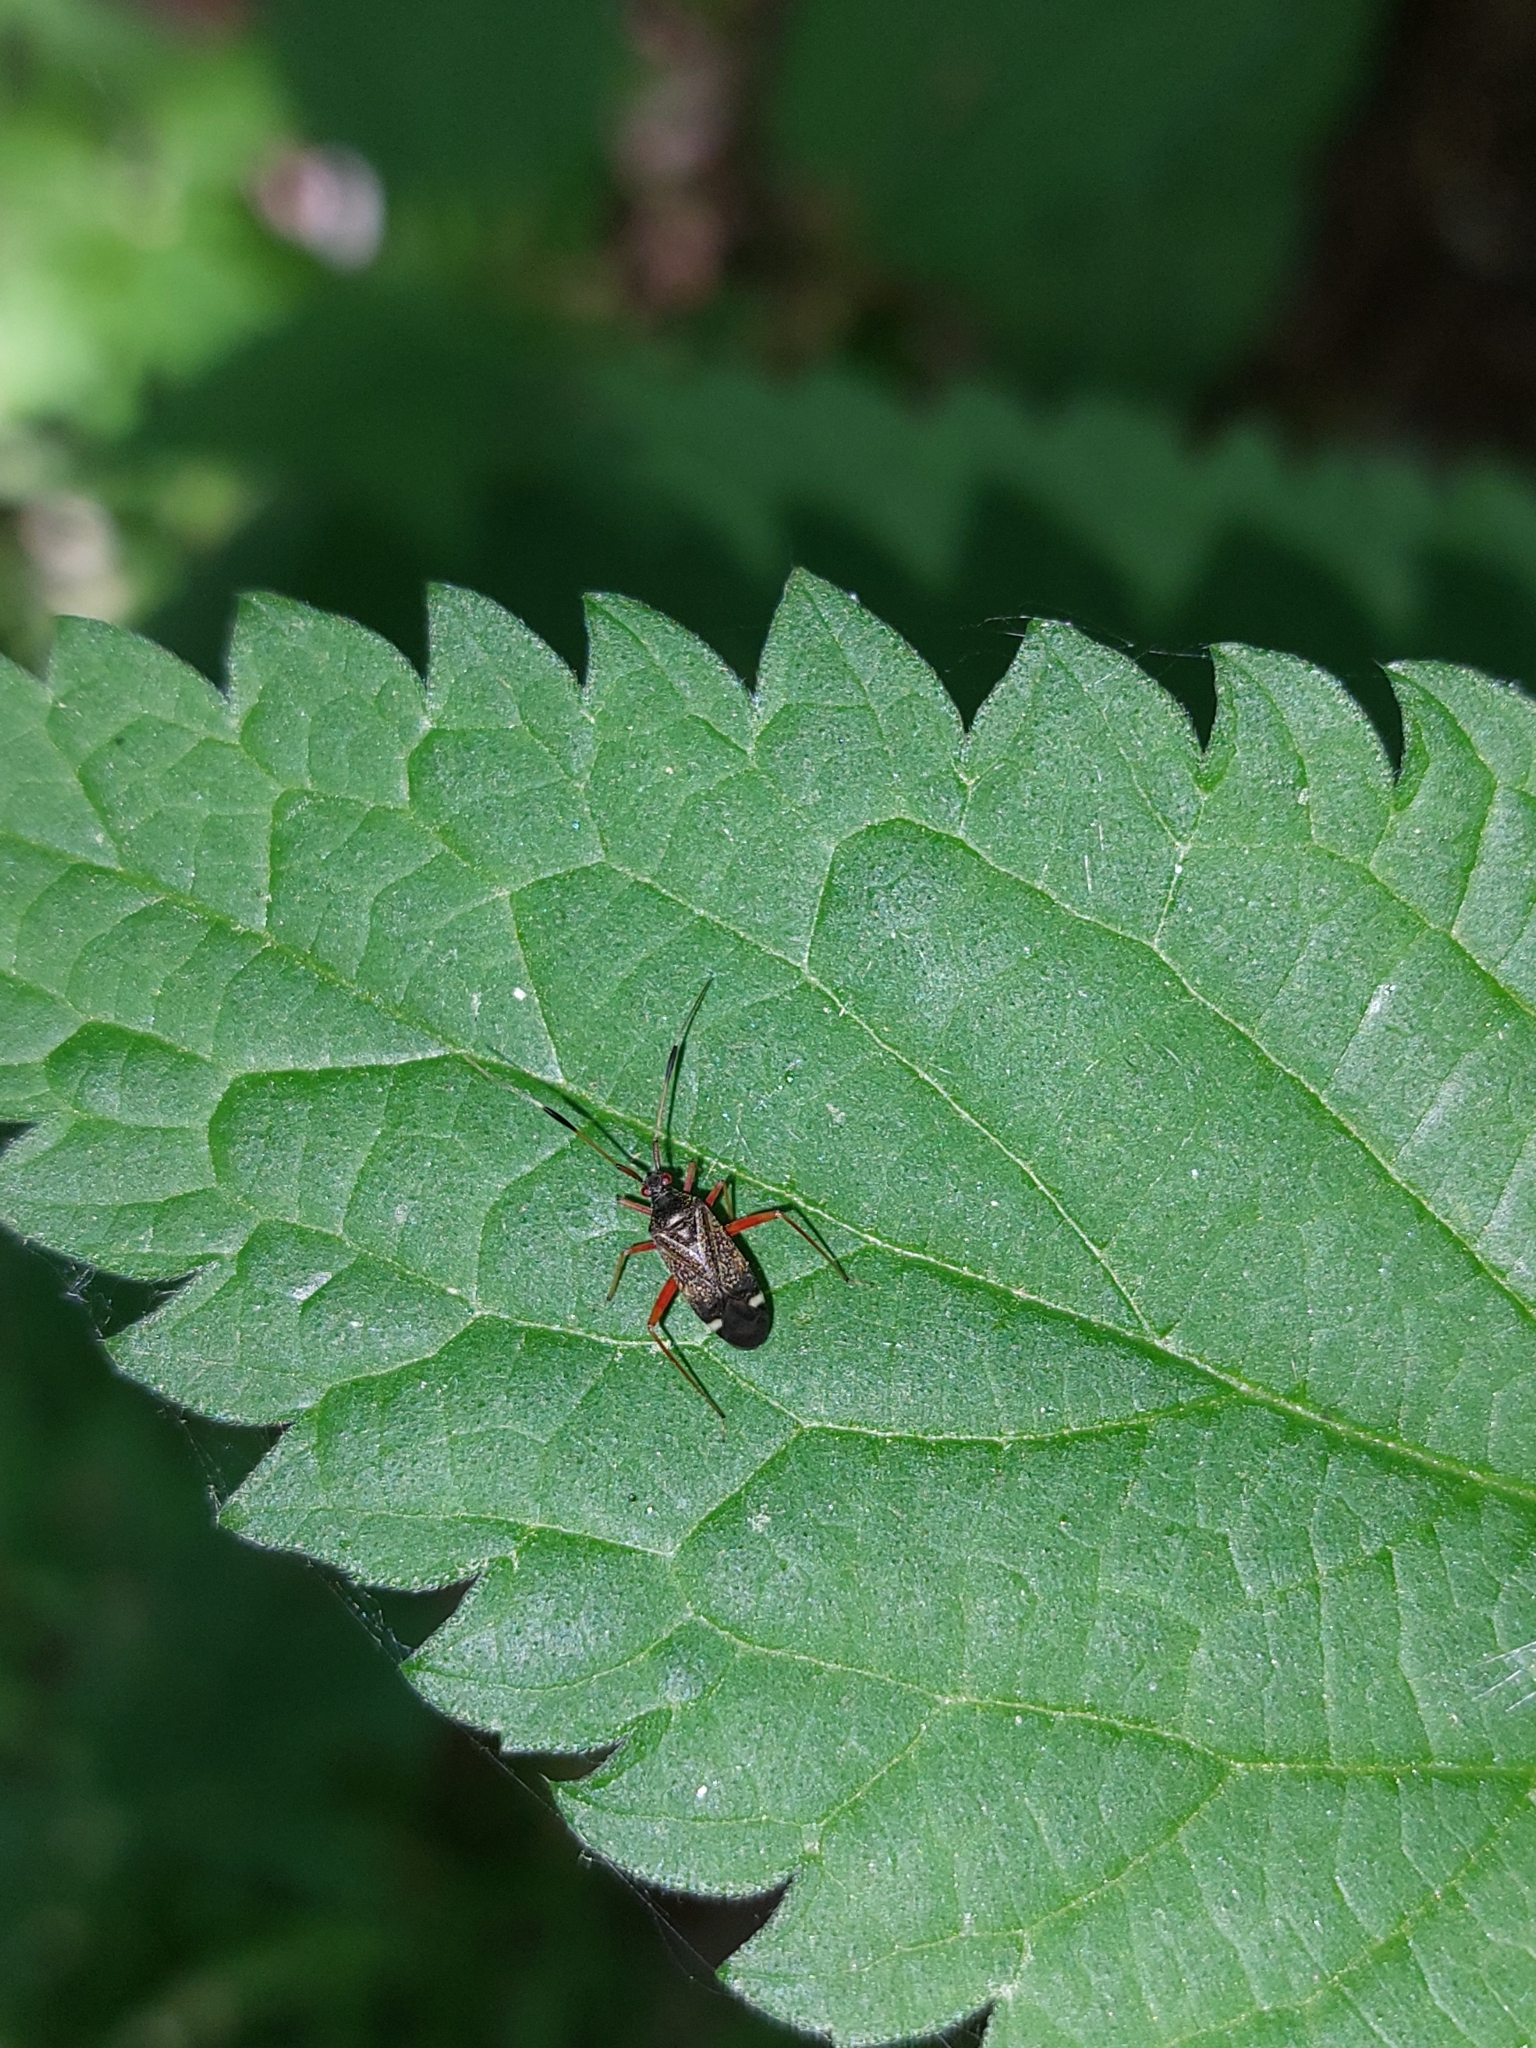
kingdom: Animalia
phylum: Arthropoda
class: Insecta
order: Hemiptera
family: Miridae
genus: Closterotomus
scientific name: Closterotomus biclavatus
